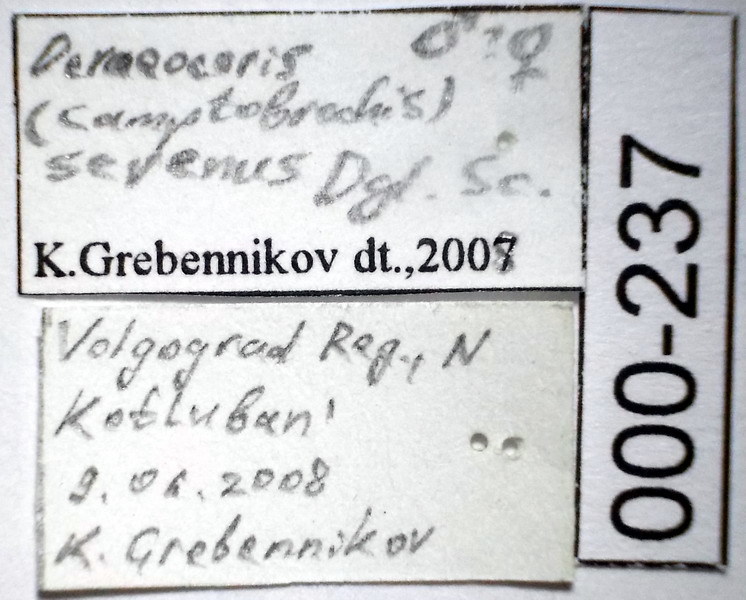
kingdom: Animalia
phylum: Arthropoda
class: Insecta
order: Hemiptera
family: Miridae
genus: Deraeocoris
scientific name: Deraeocoris serenus
